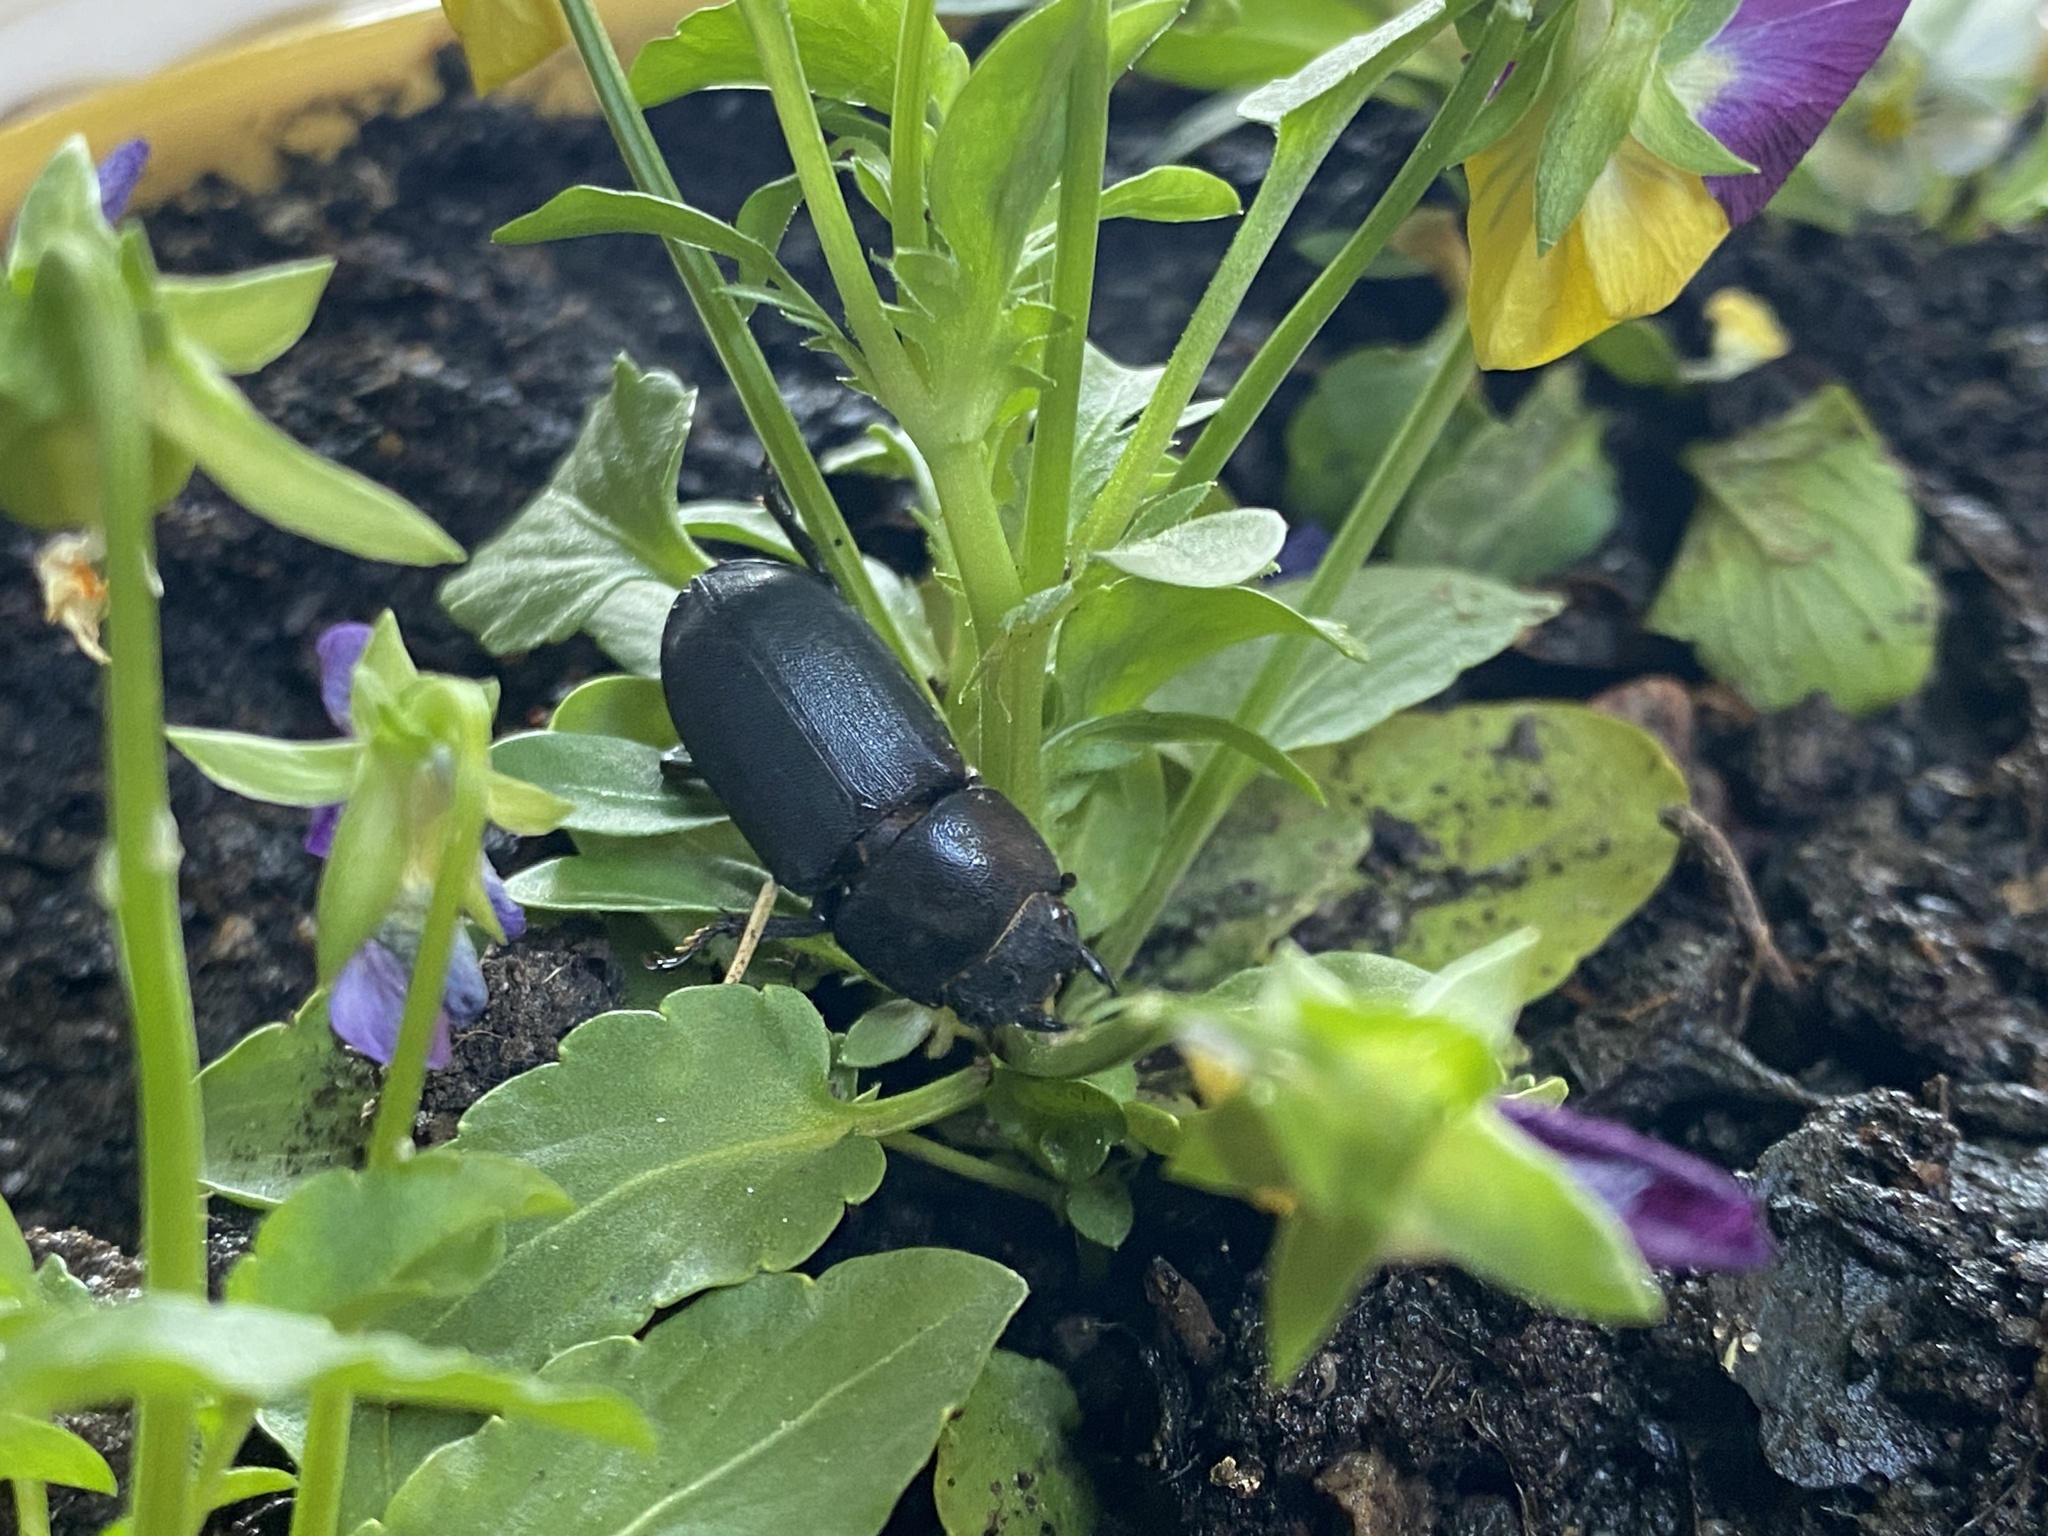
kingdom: Animalia
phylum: Arthropoda
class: Insecta
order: Coleoptera
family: Lucanidae
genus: Dorcus
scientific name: Dorcus parallelipipedus
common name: Lesser stag beetle
